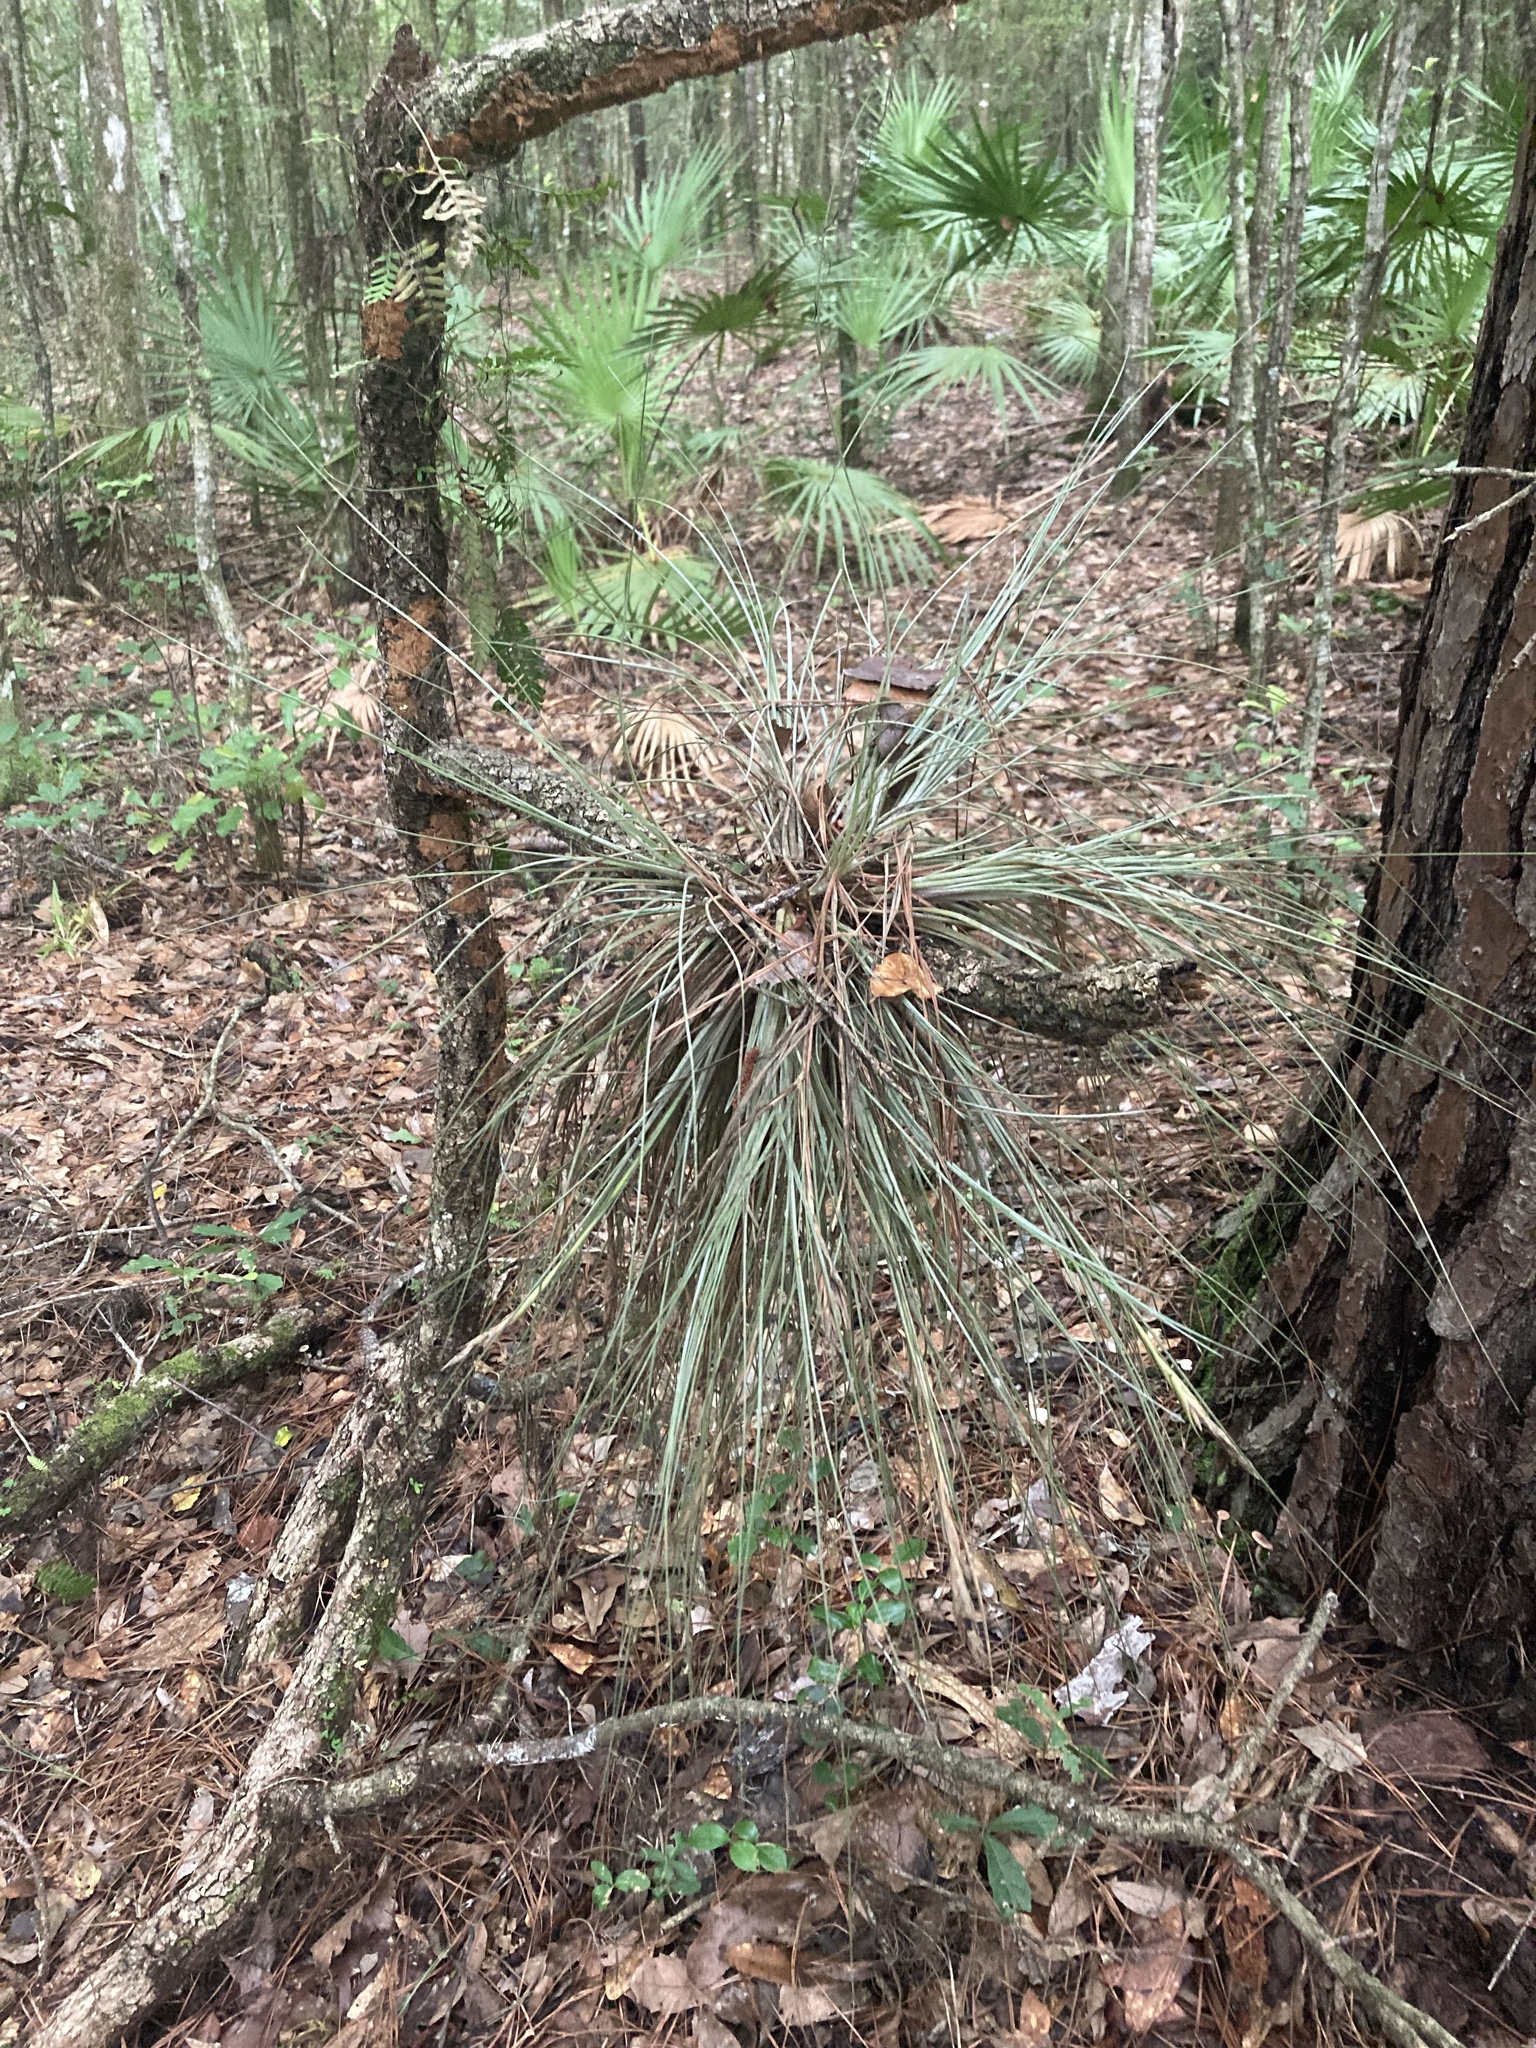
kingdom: Plantae
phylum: Tracheophyta
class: Liliopsida
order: Poales
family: Bromeliaceae
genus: Tillandsia
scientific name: Tillandsia bartramii
